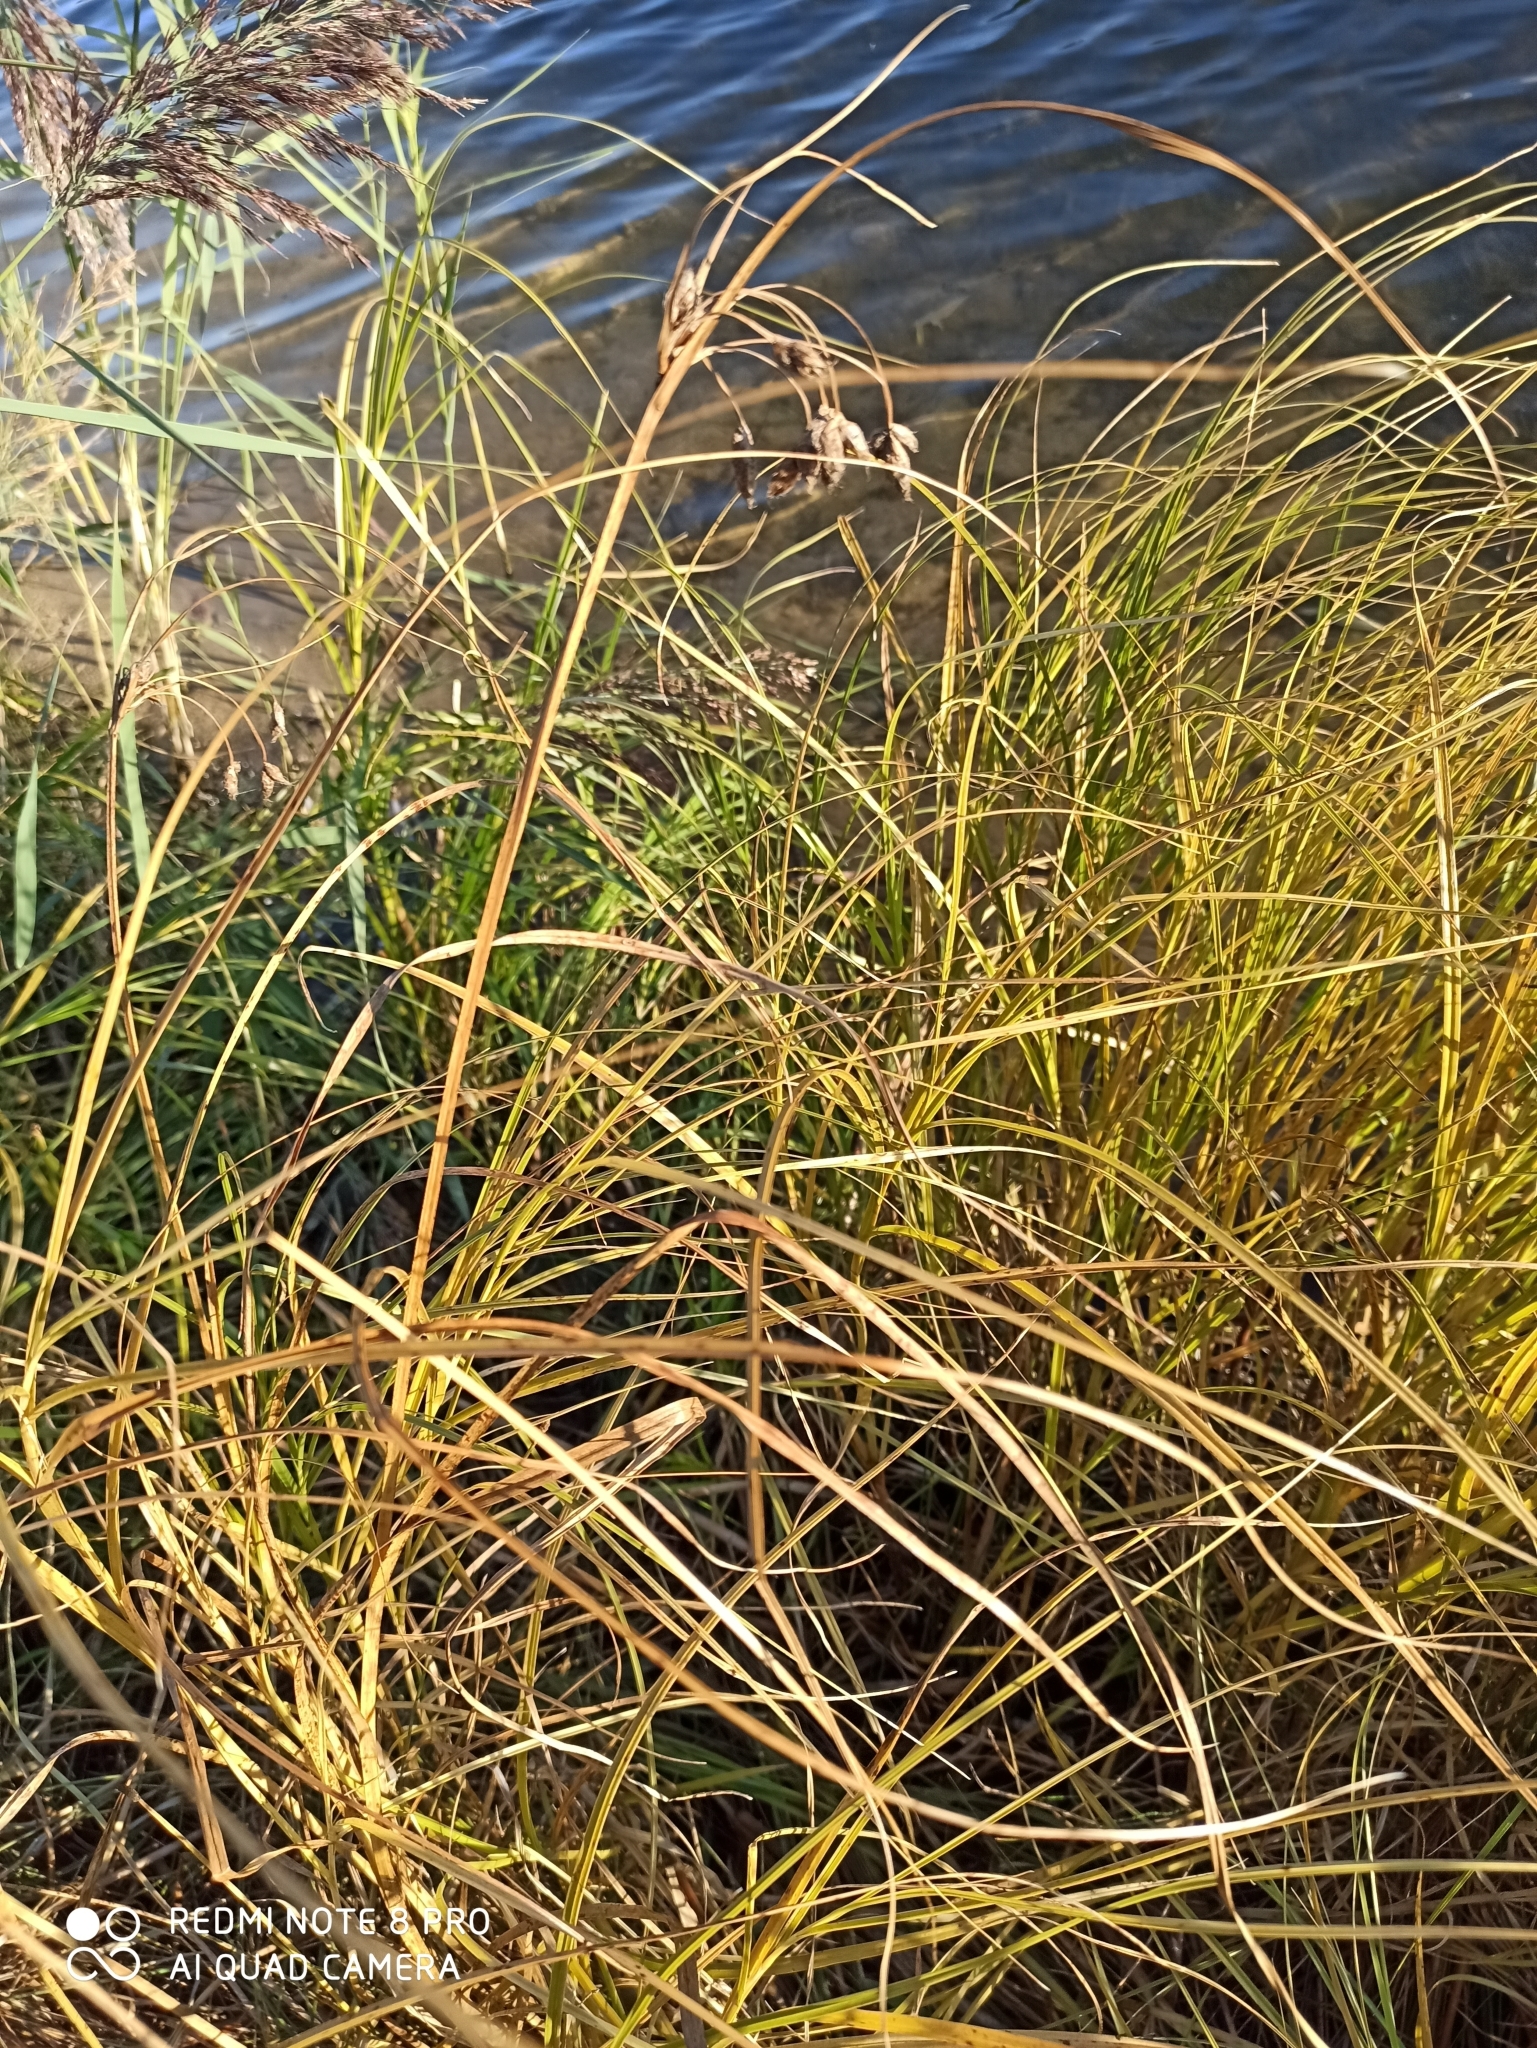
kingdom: Plantae
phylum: Tracheophyta
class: Liliopsida
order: Poales
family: Cyperaceae
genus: Bolboschoenus
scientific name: Bolboschoenus maritimus
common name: Sea club-rush
